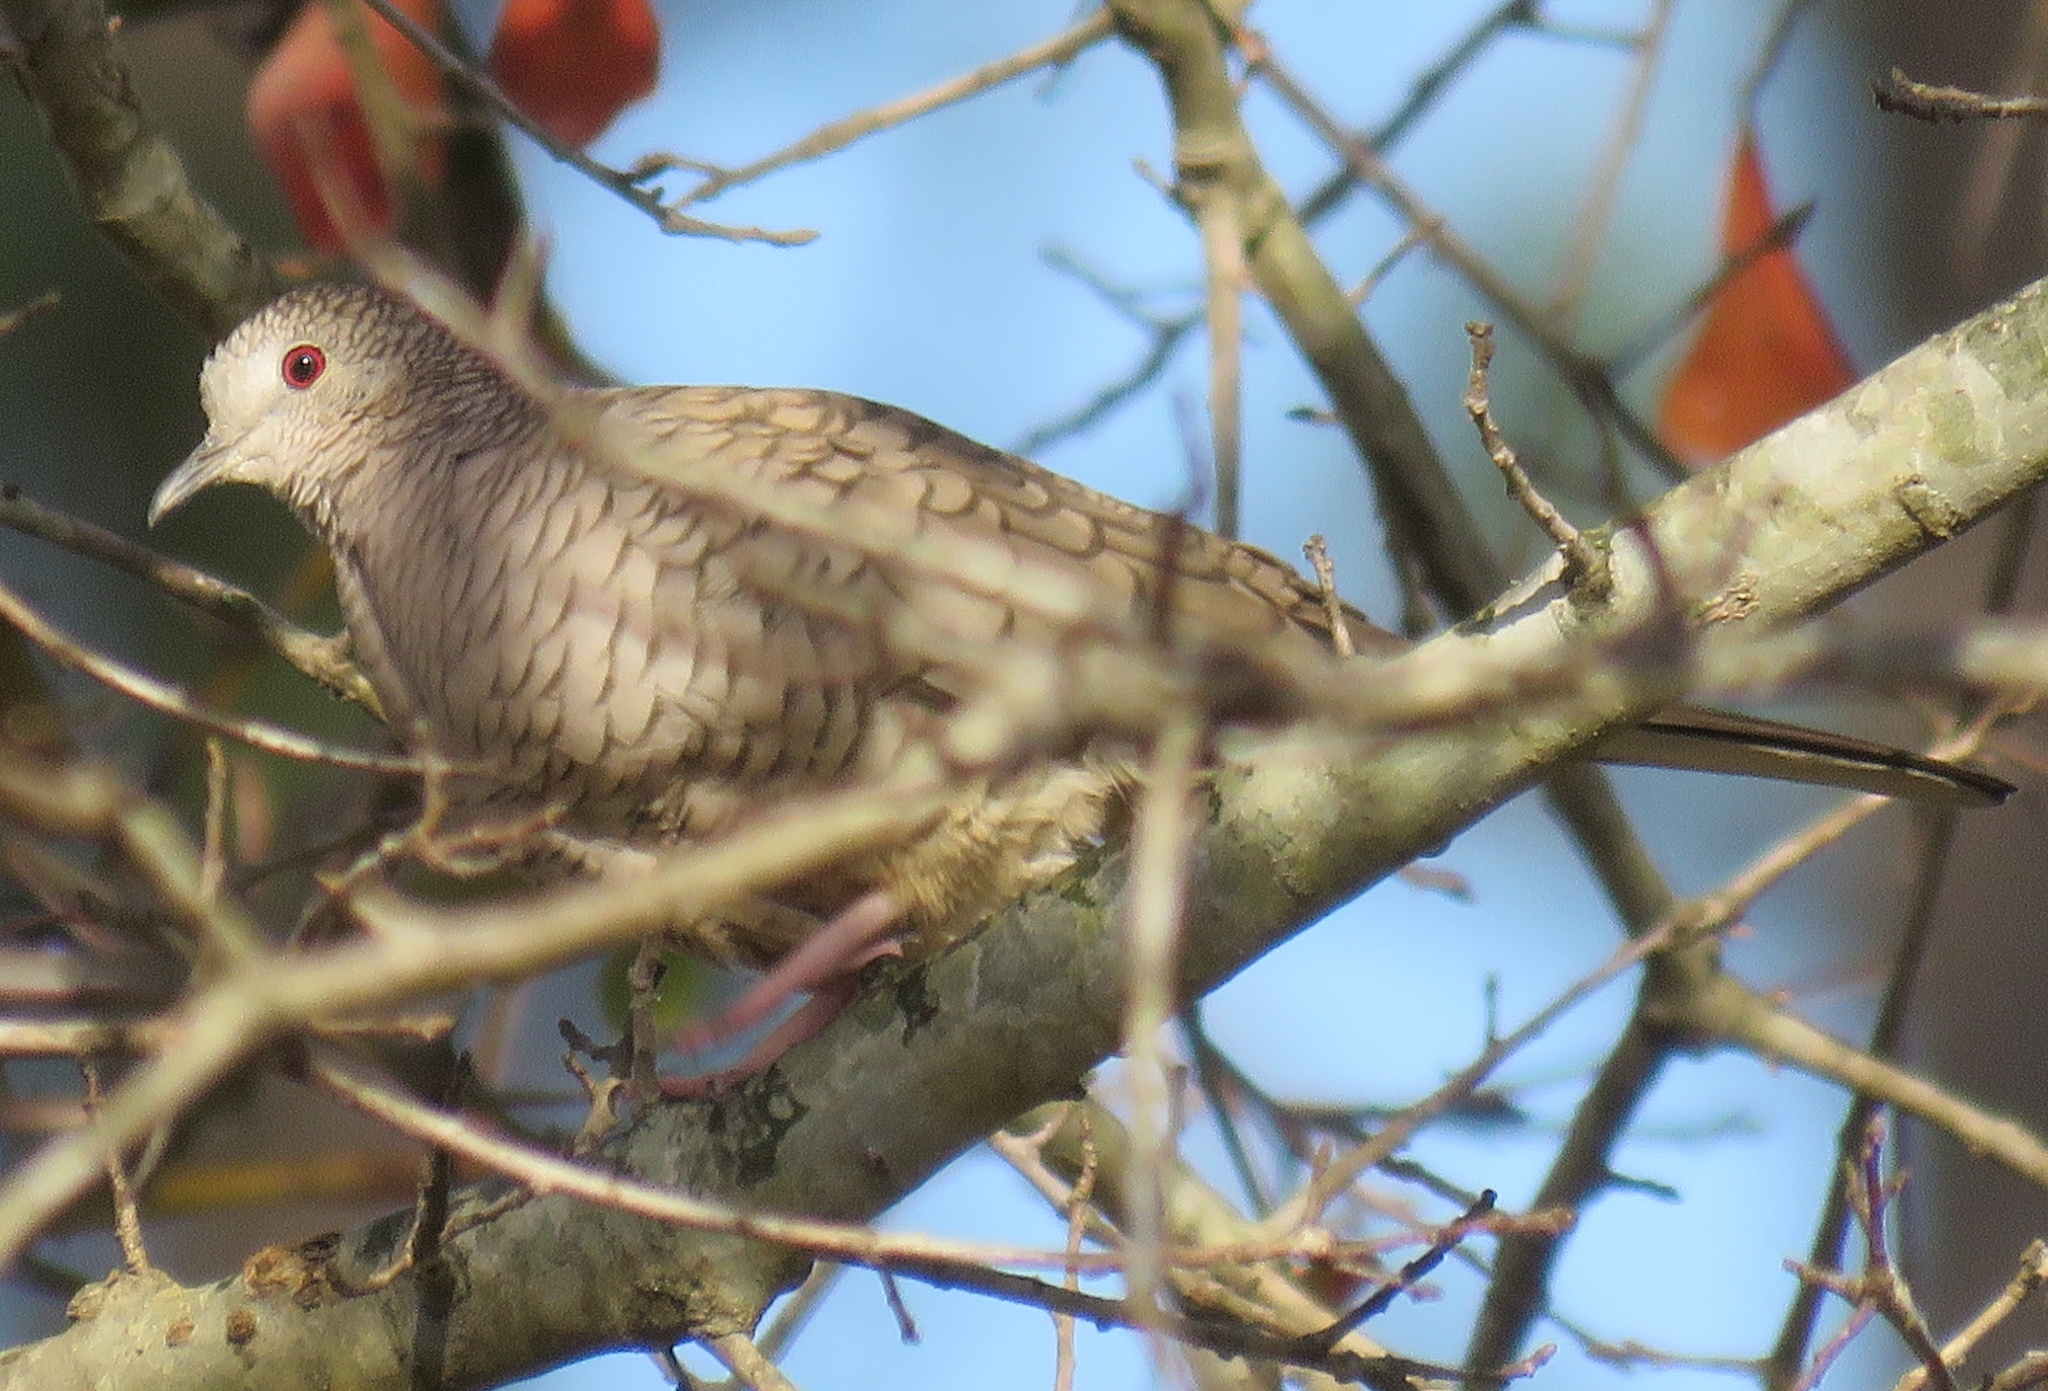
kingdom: Animalia
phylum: Chordata
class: Aves
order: Columbiformes
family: Columbidae
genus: Columbina
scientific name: Columbina inca
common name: Inca dove
